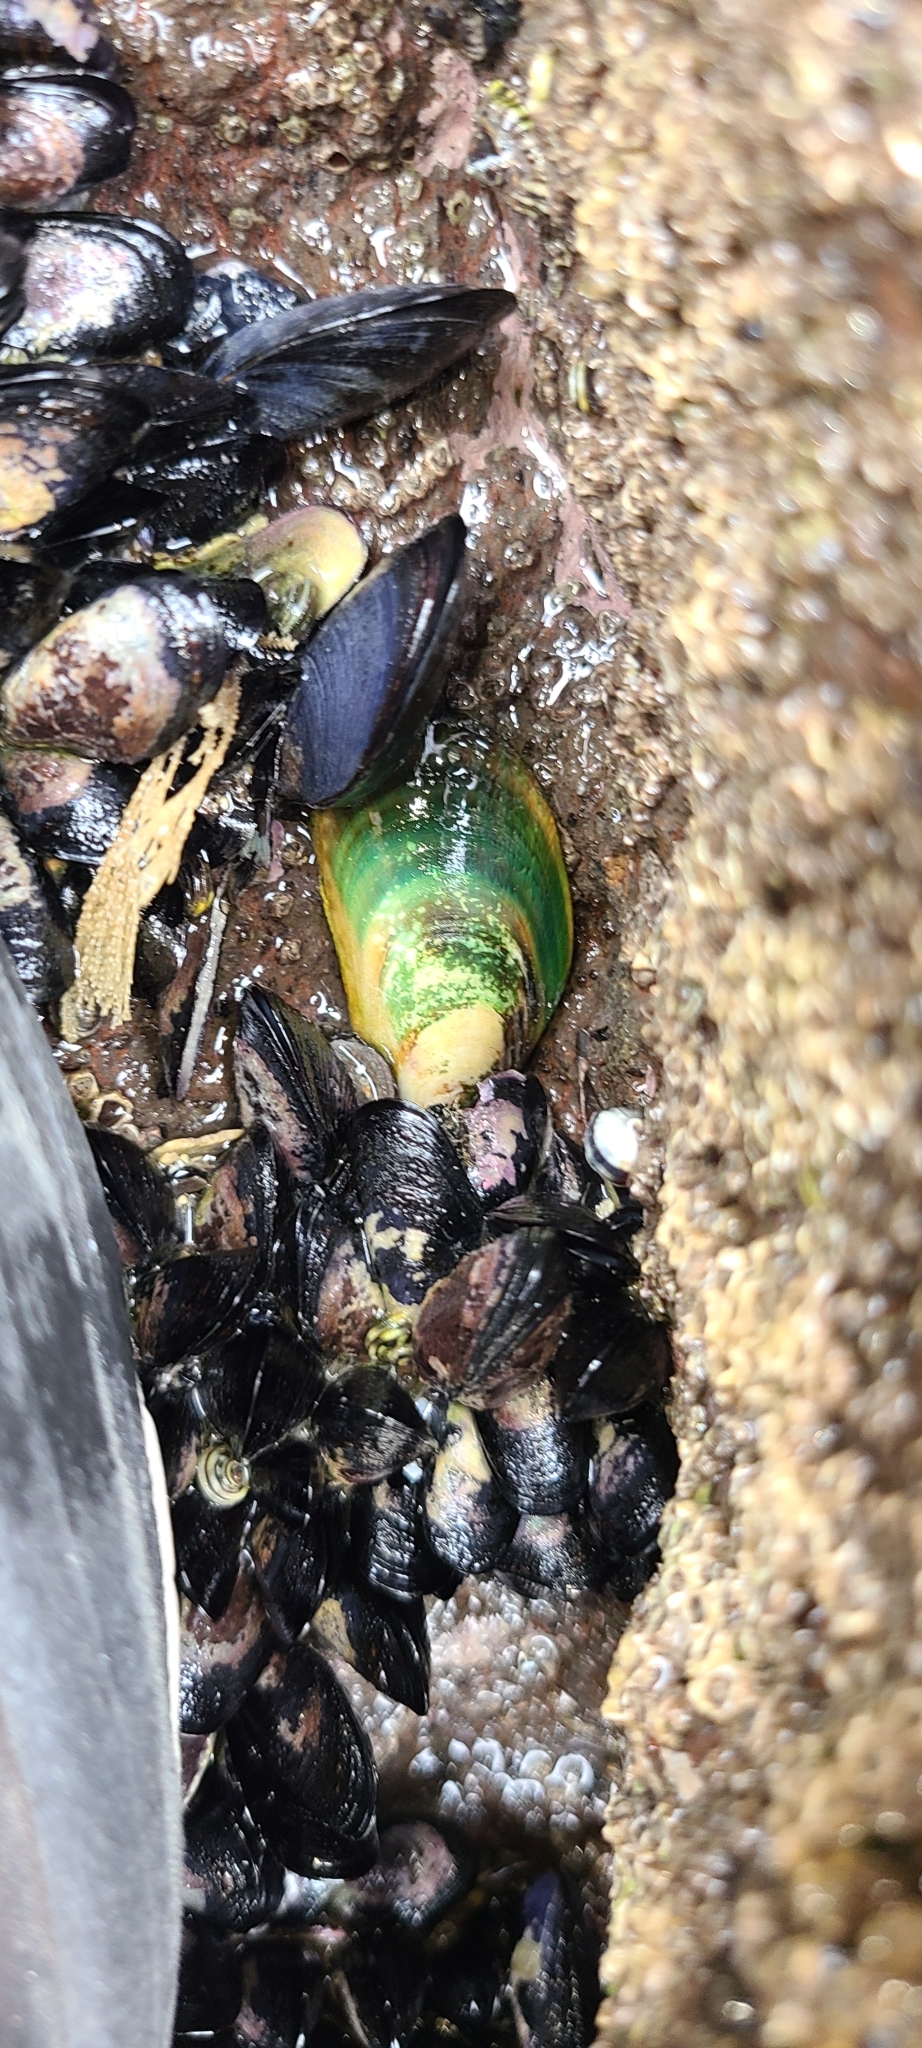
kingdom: Animalia
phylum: Mollusca
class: Bivalvia
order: Mytilida
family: Mytilidae
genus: Perna
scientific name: Perna canaliculus
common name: New zealand greenshelltm
